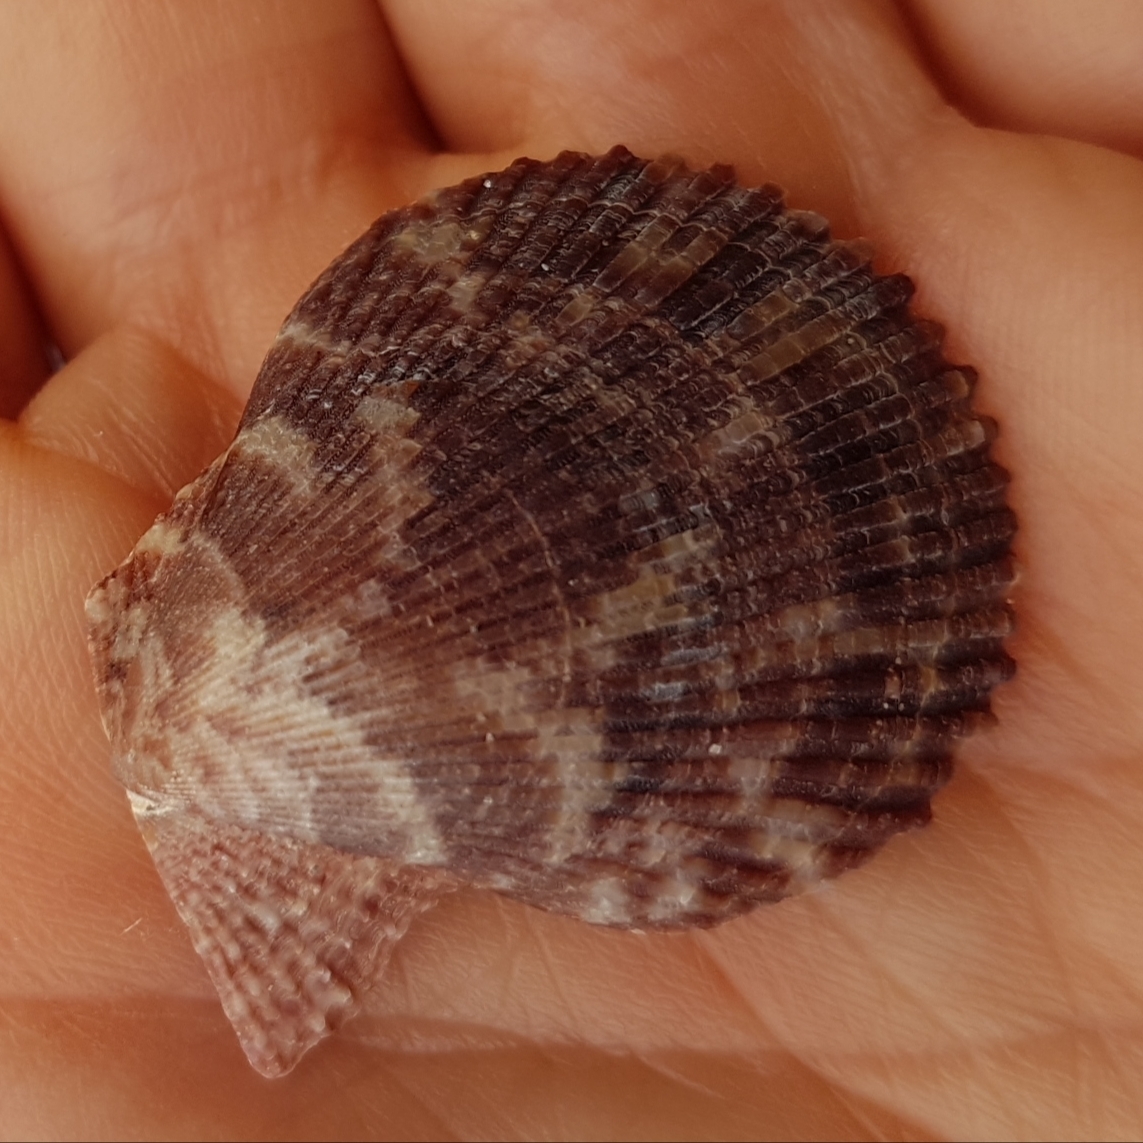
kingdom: Animalia
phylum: Mollusca
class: Bivalvia
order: Pectinida
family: Pectinidae
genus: Mimachlamys
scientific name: Mimachlamys varia
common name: Variegated scallop
